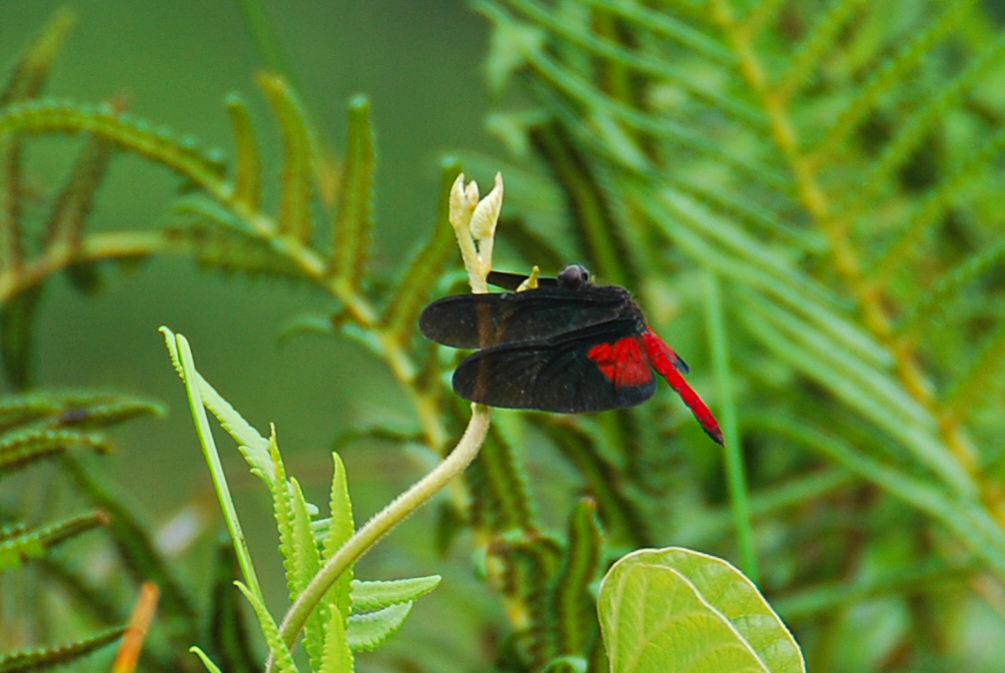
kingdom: Animalia
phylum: Arthropoda
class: Insecta
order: Odonata
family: Libellulidae
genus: Diastatops
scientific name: Diastatops intensa
